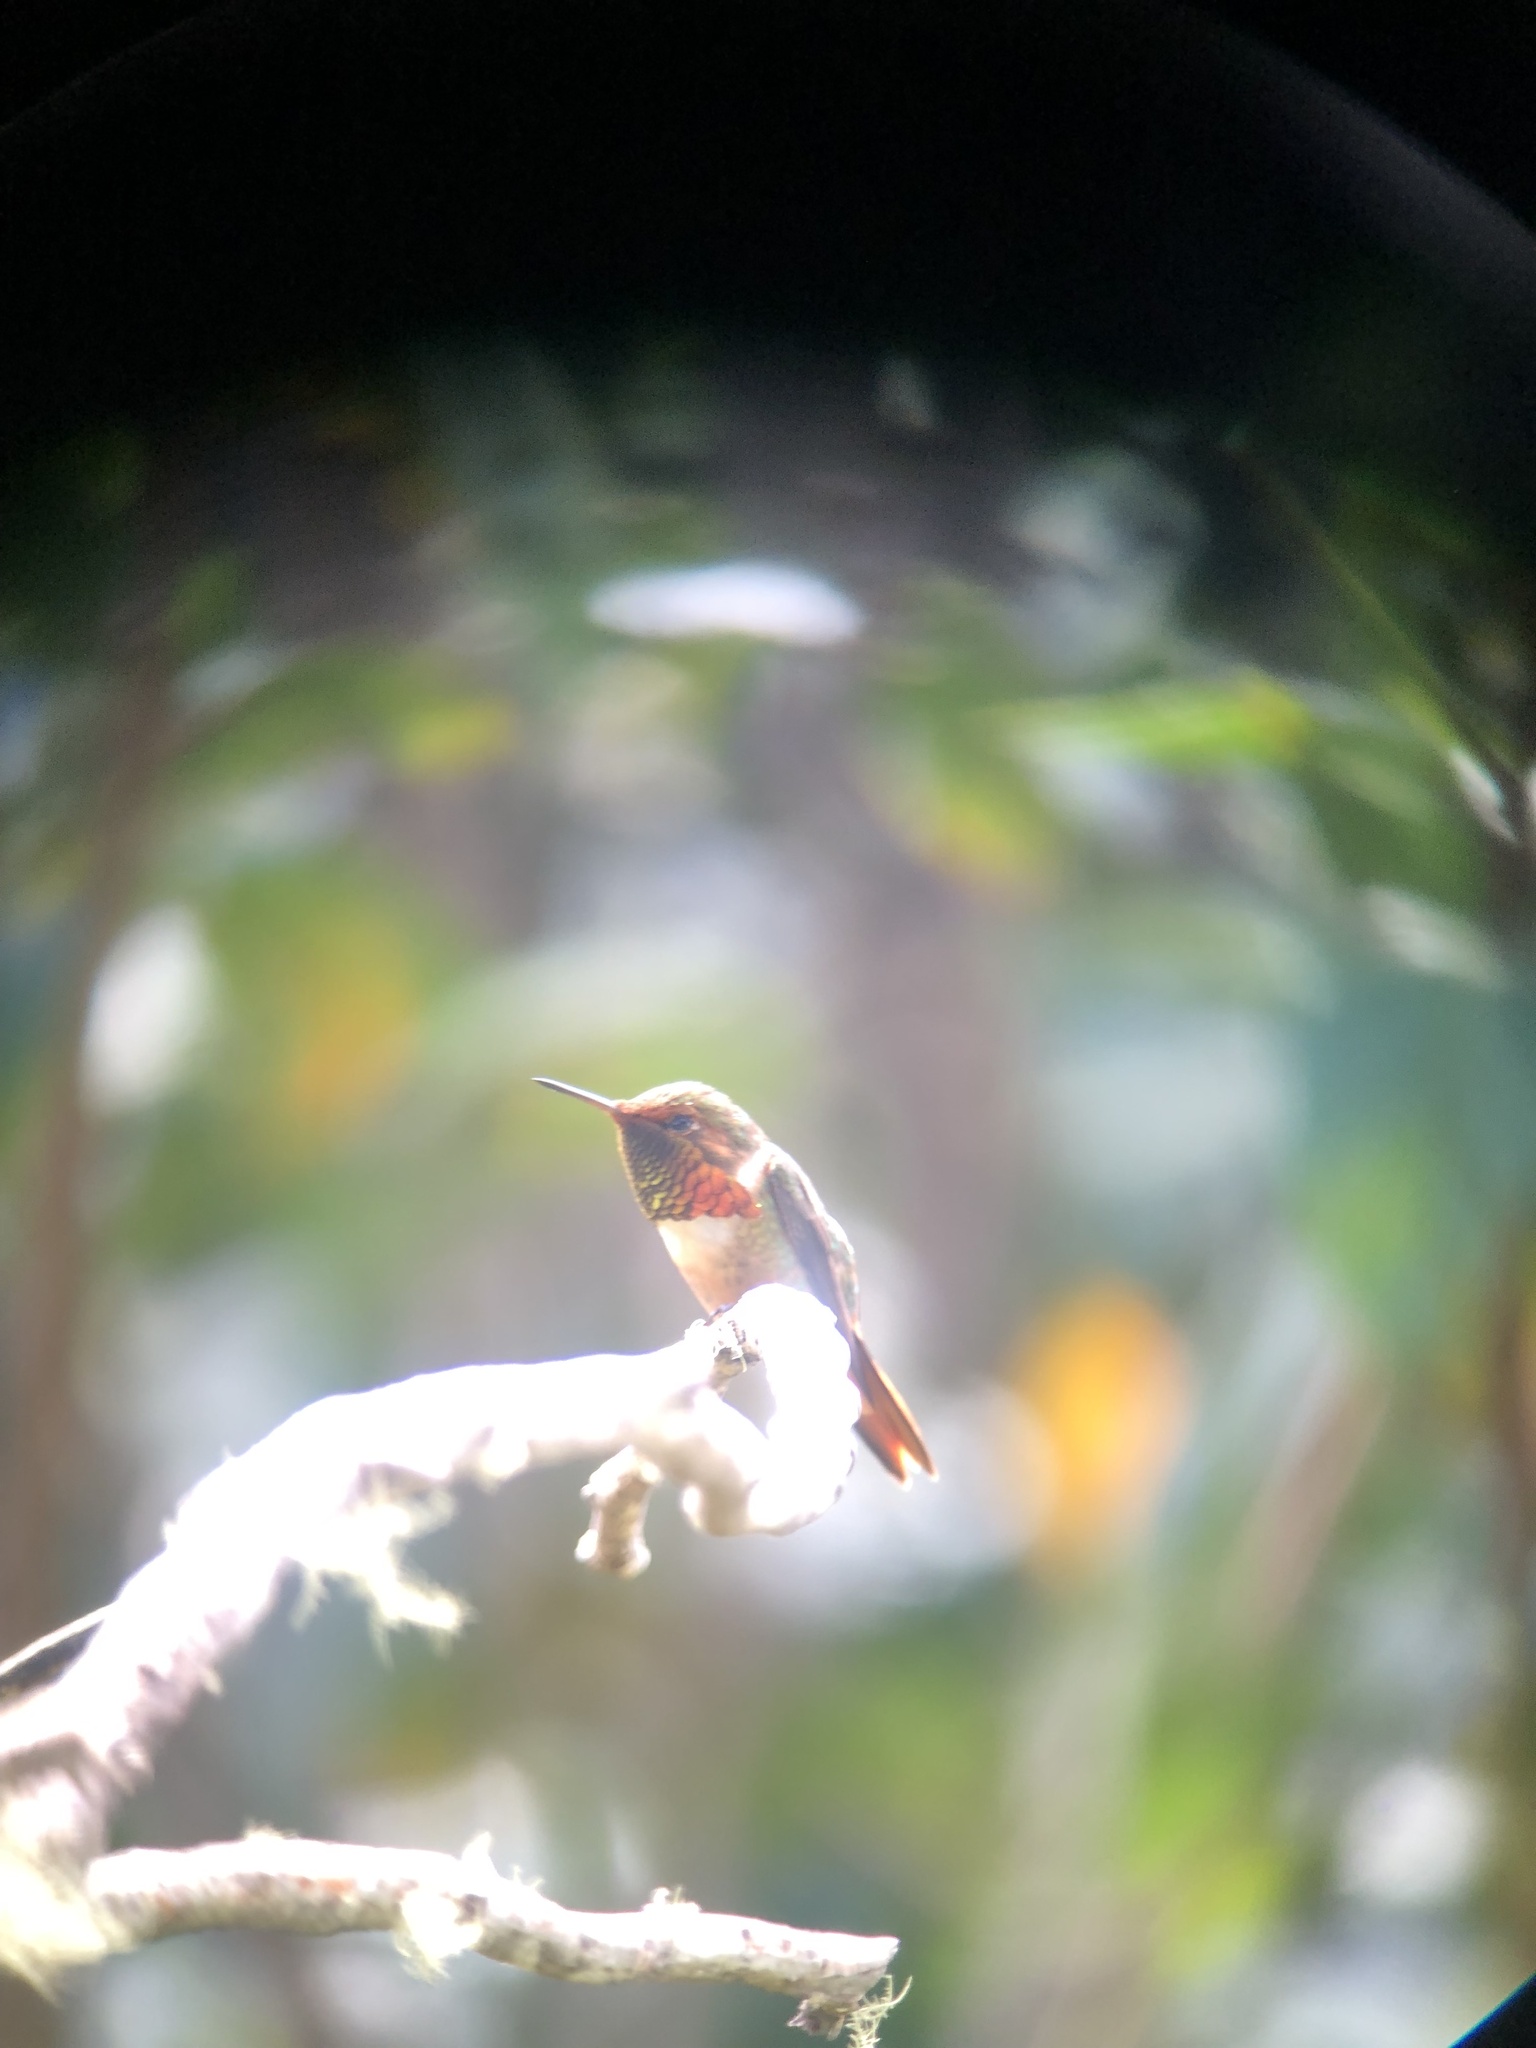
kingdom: Animalia
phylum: Chordata
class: Aves
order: Apodiformes
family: Trochilidae
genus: Selasphorus
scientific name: Selasphorus scintilla
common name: Scintillant hummingbird
